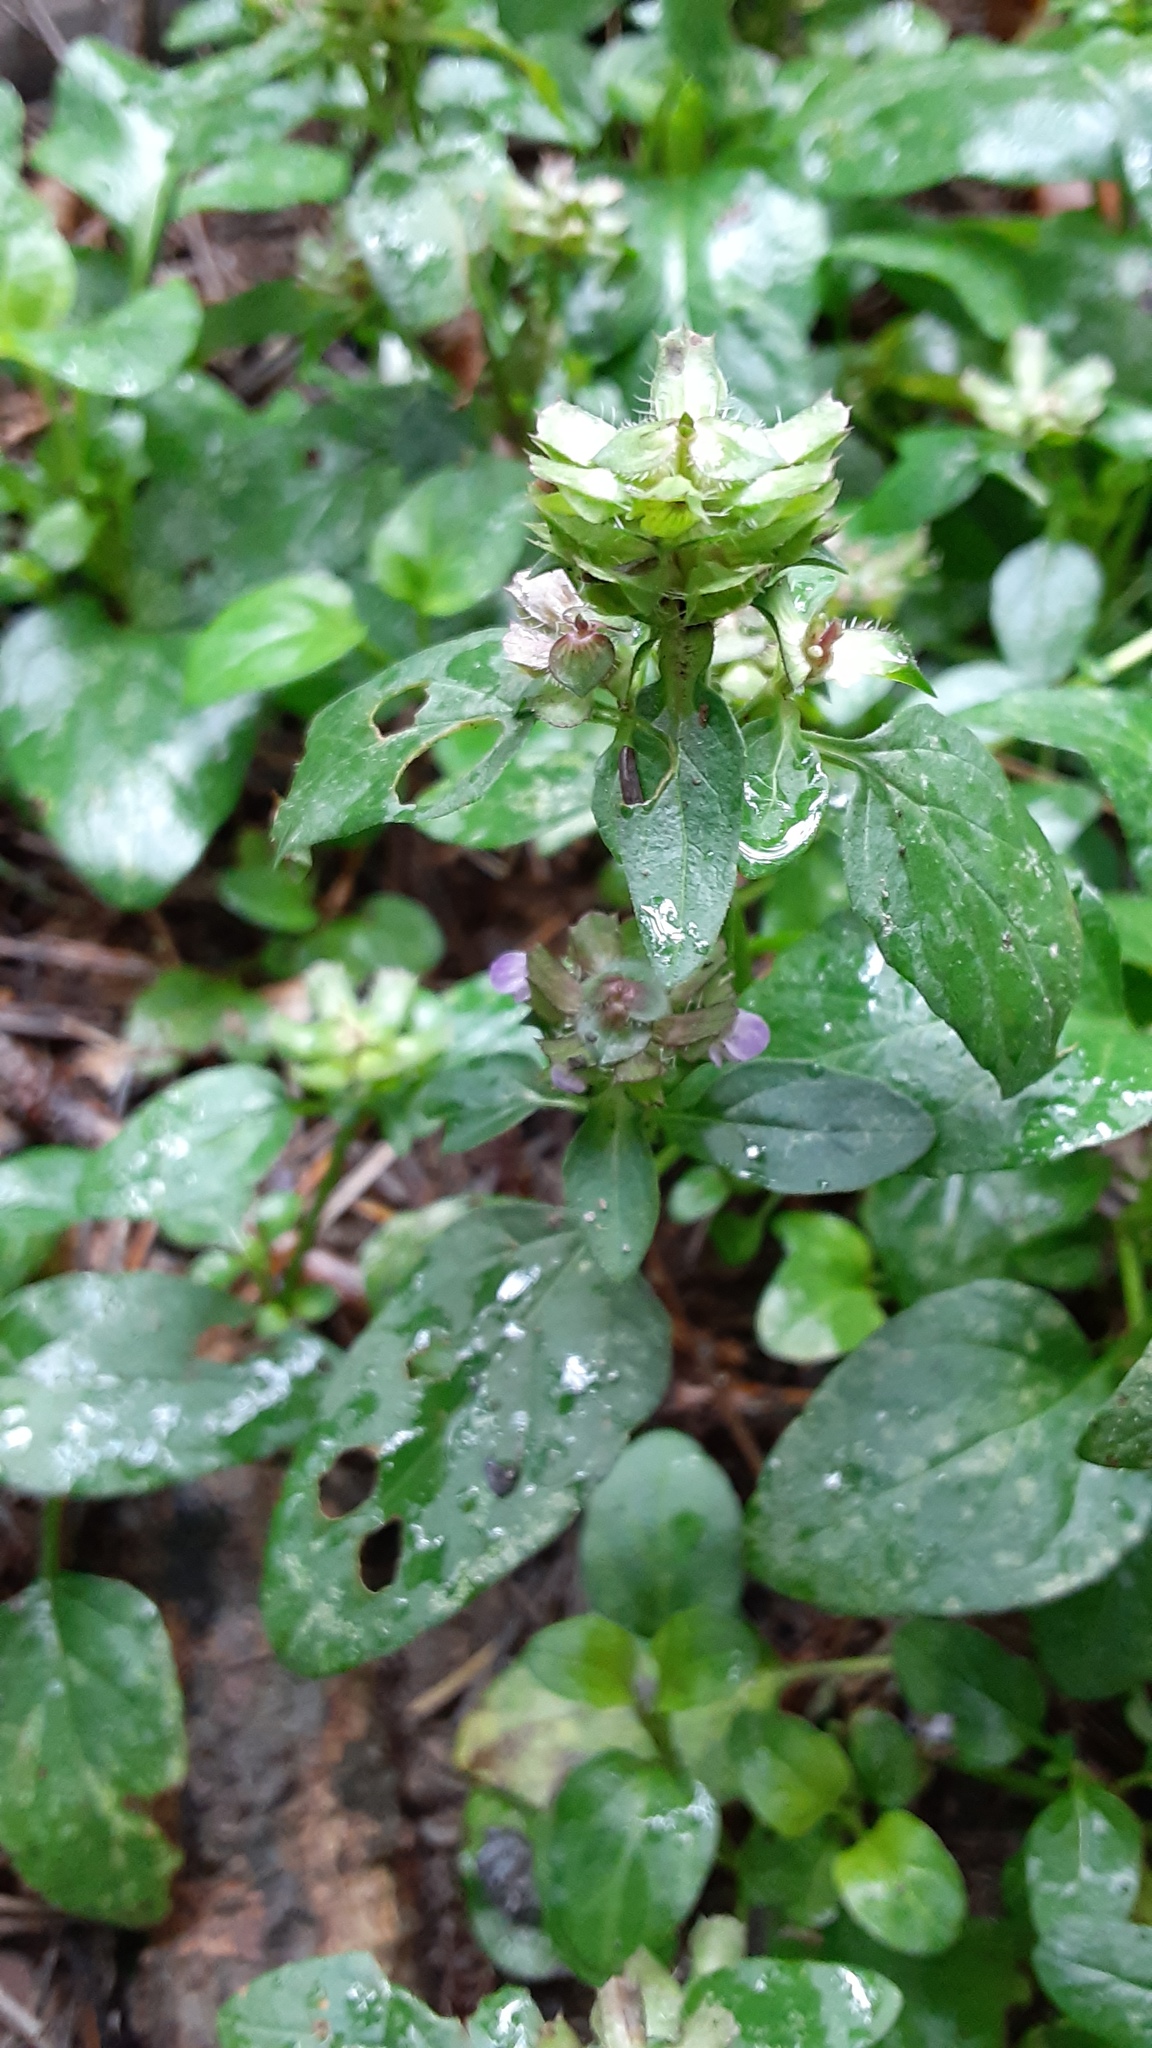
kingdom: Plantae
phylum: Tracheophyta
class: Magnoliopsida
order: Lamiales
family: Lamiaceae
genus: Prunella
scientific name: Prunella vulgaris
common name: Heal-all
